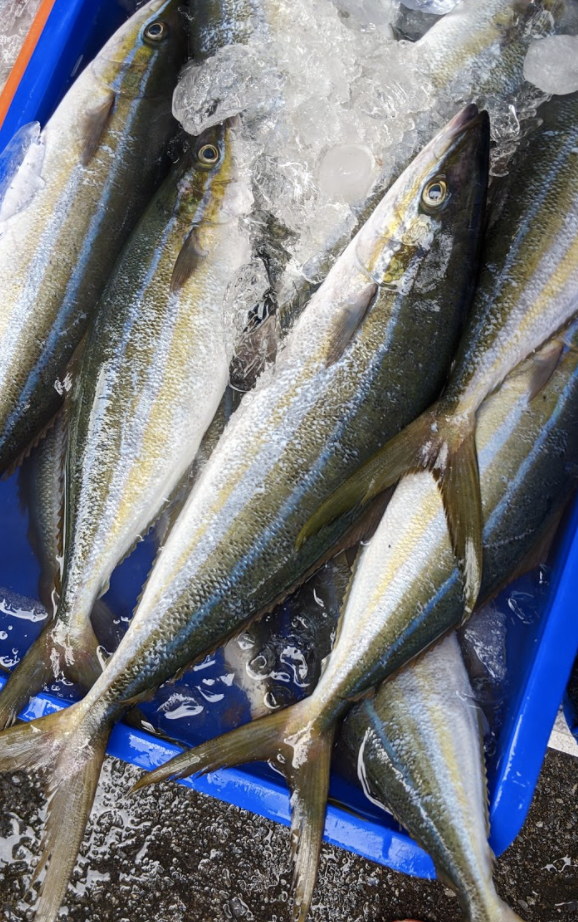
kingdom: Animalia
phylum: Chordata
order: Perciformes
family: Carangidae
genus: Elagatis
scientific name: Elagatis bipinnulata
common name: Rainbow runner
